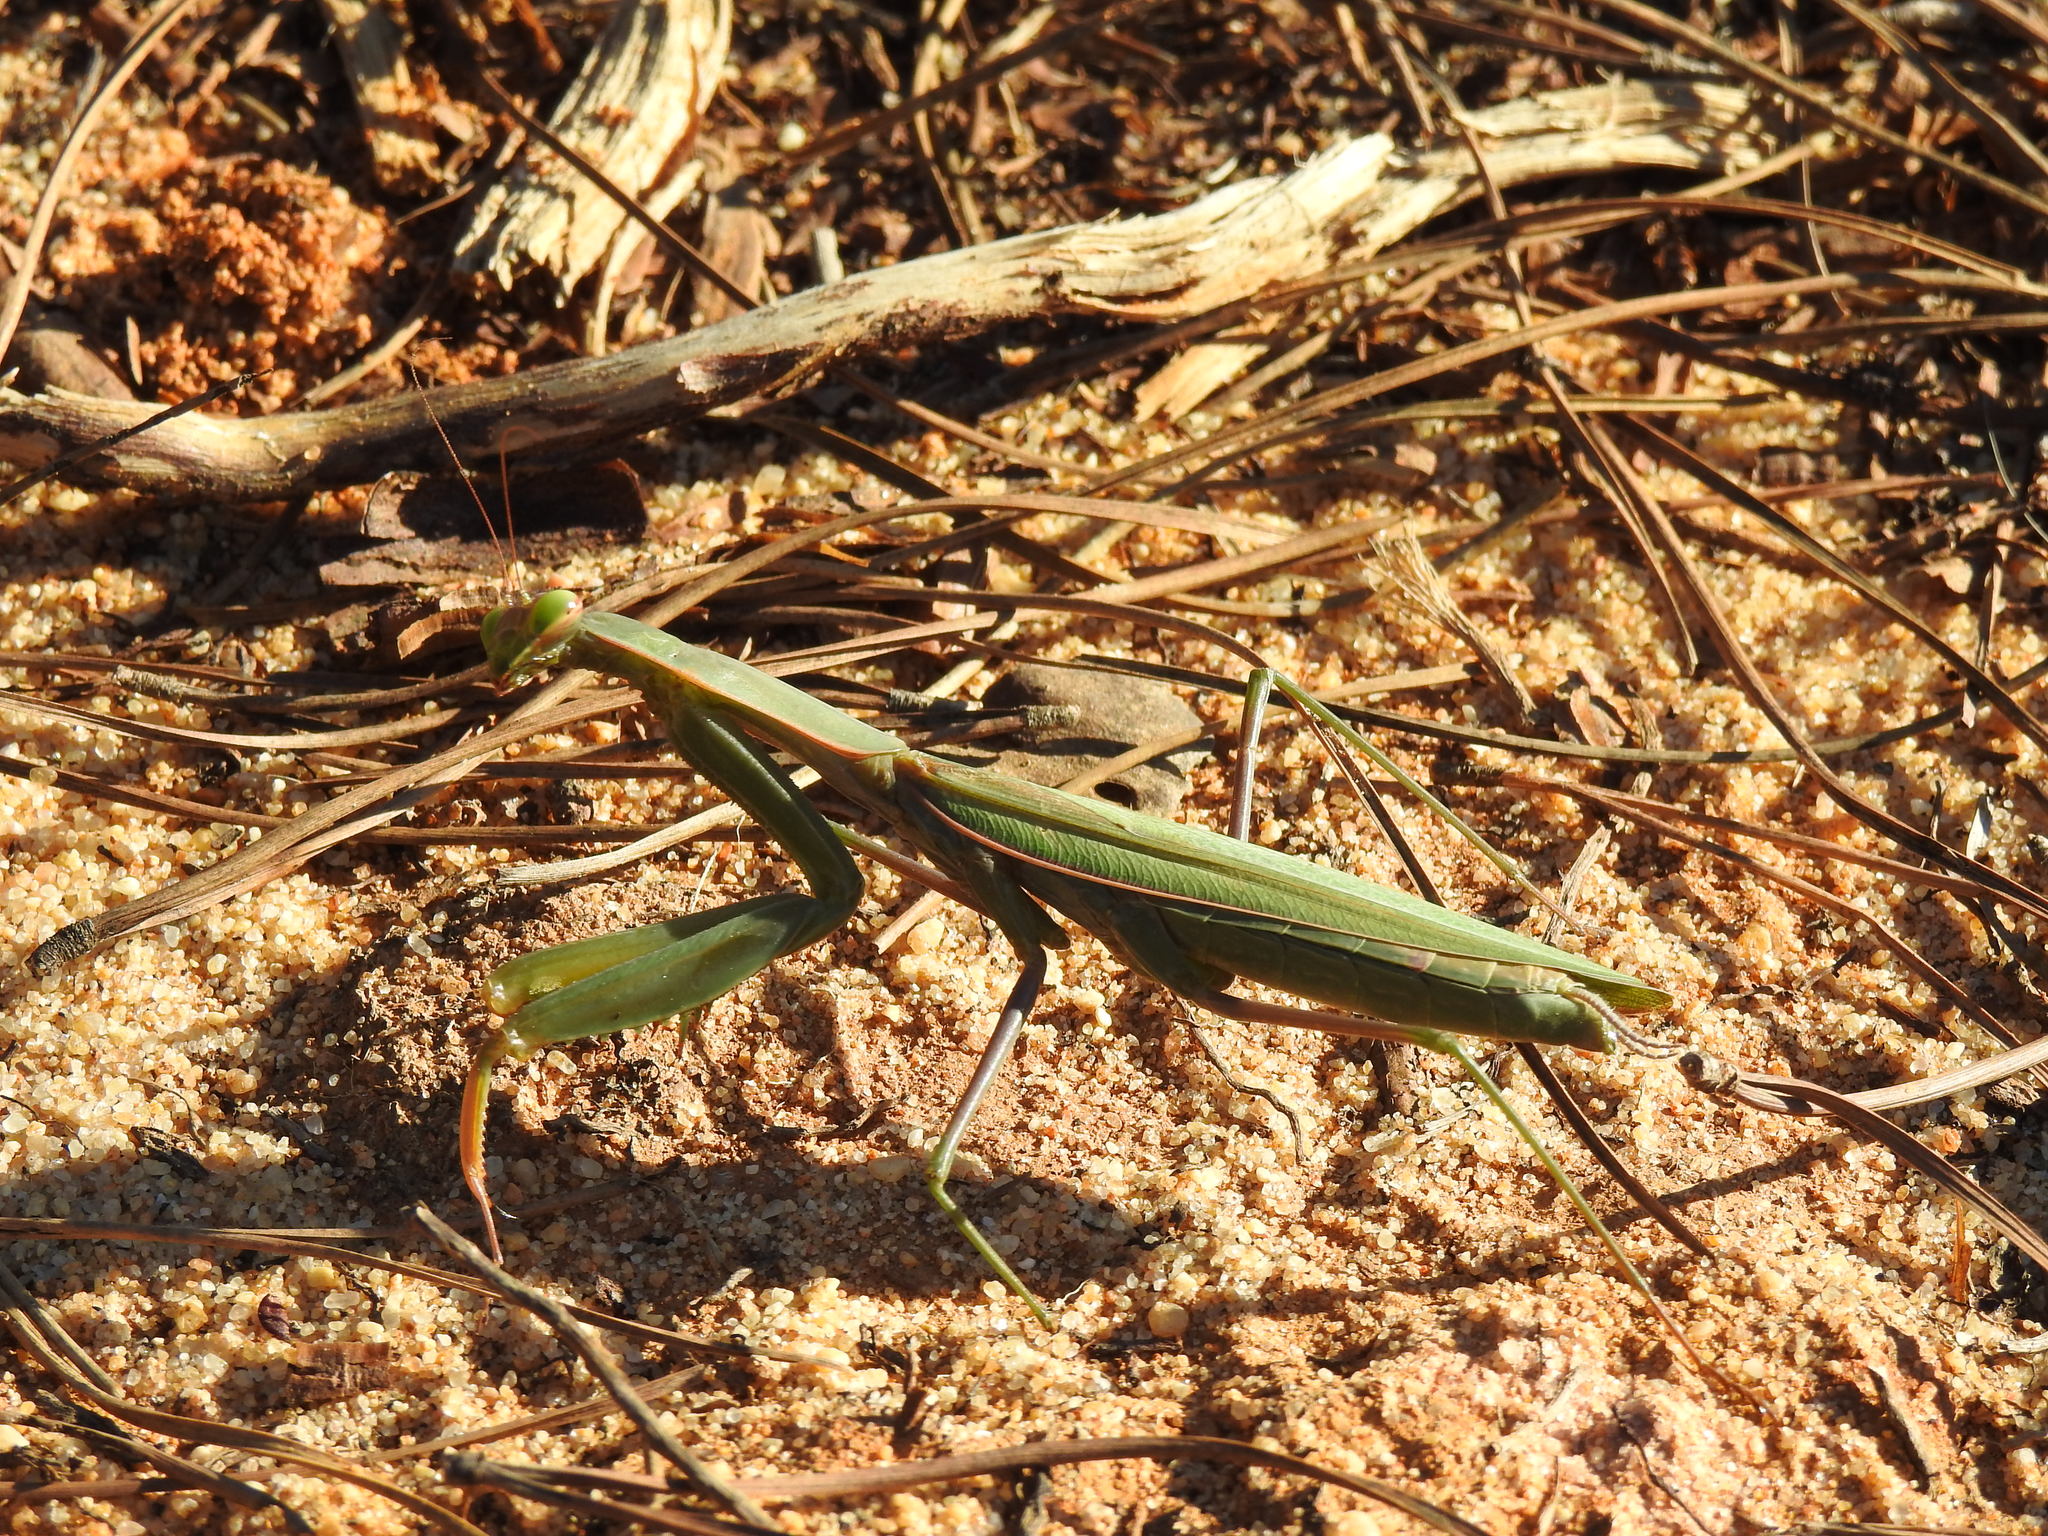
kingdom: Animalia
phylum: Arthropoda
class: Insecta
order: Mantodea
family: Mantidae
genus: Mantis
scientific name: Mantis religiosa
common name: Praying mantis
